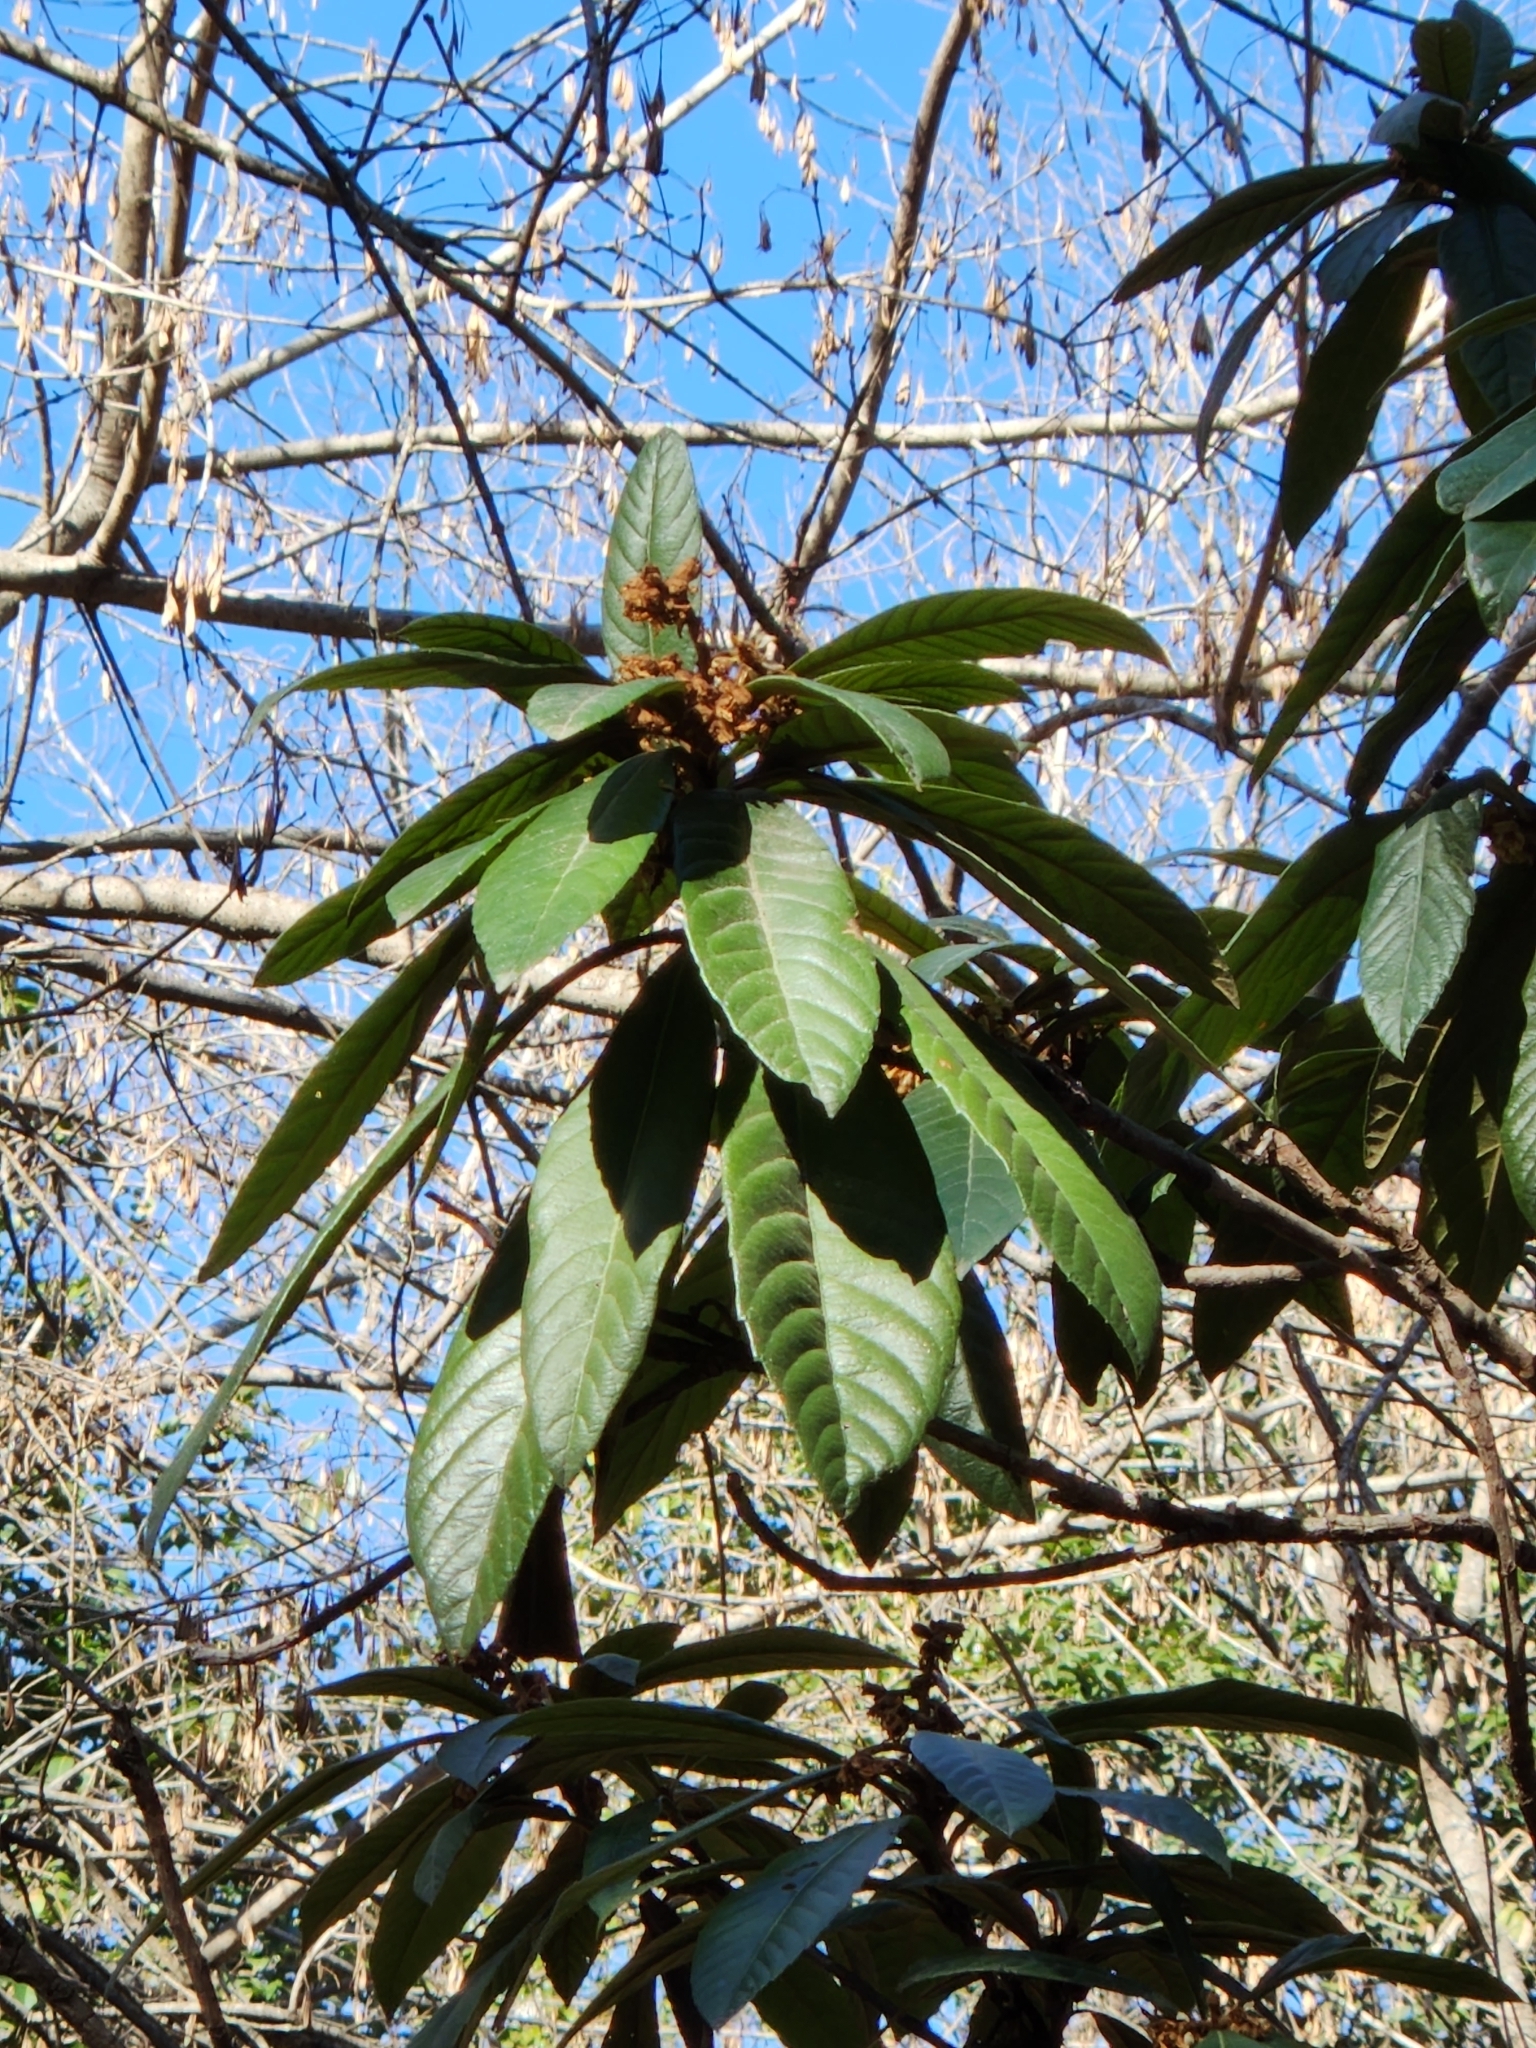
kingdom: Plantae
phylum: Tracheophyta
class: Magnoliopsida
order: Rosales
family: Rosaceae
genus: Rhaphiolepis
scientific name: Rhaphiolepis bibas
